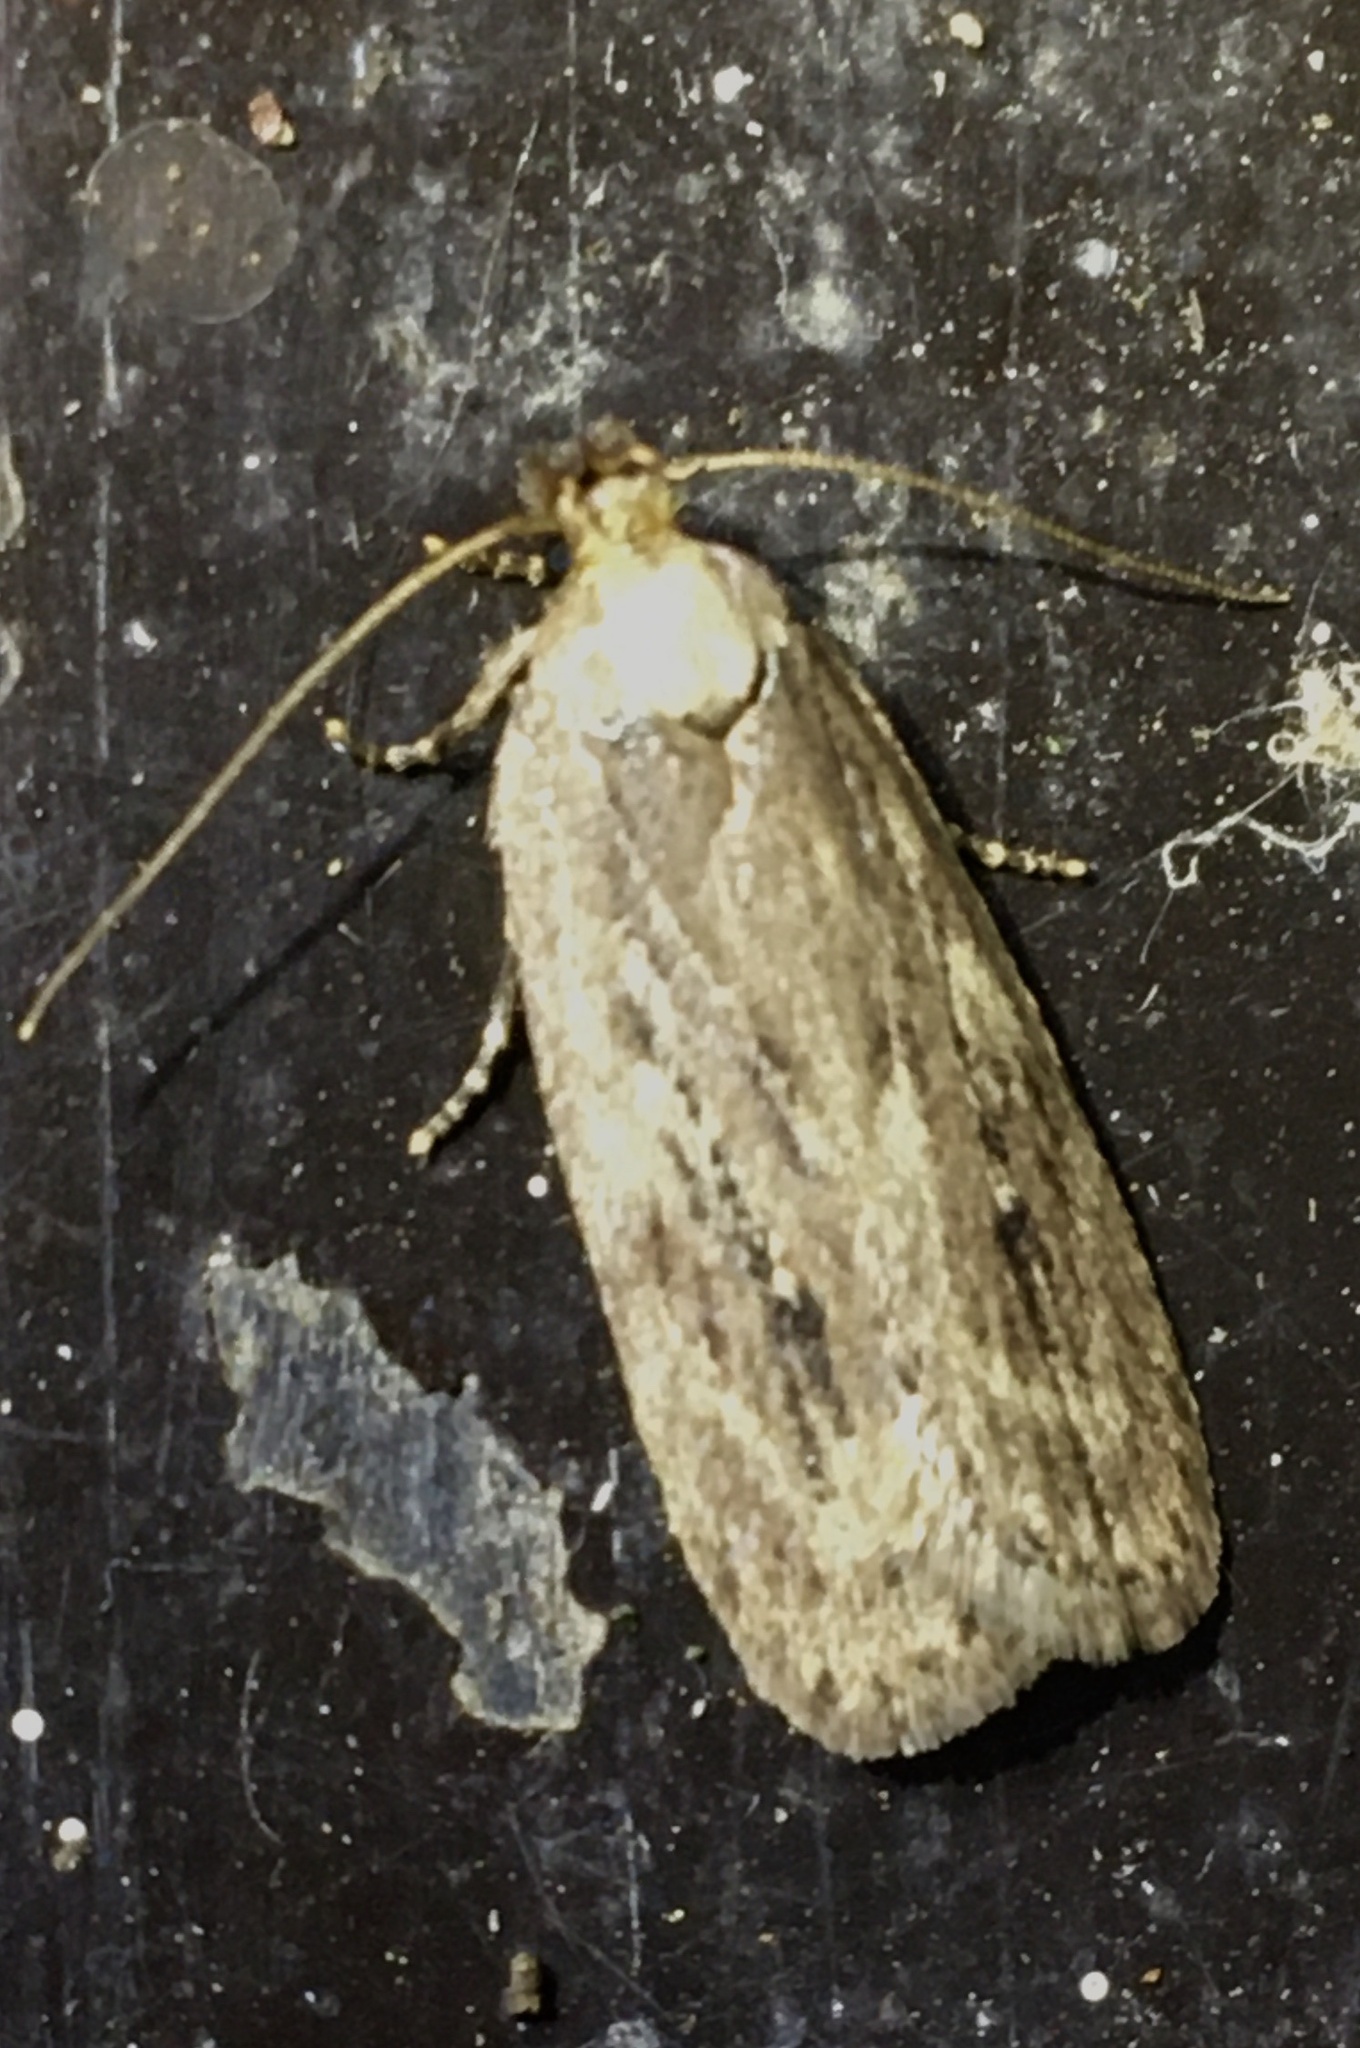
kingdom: Animalia
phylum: Arthropoda
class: Insecta
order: Lepidoptera
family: Depressariidae
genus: Depressaria
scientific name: Depressaria radiella
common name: Parsnip moth
